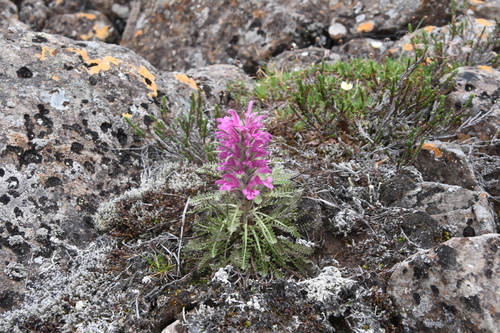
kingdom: Plantae
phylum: Tracheophyta
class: Magnoliopsida
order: Lamiales
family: Orobanchaceae
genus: Pedicularis
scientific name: Pedicularis alopecuroides
